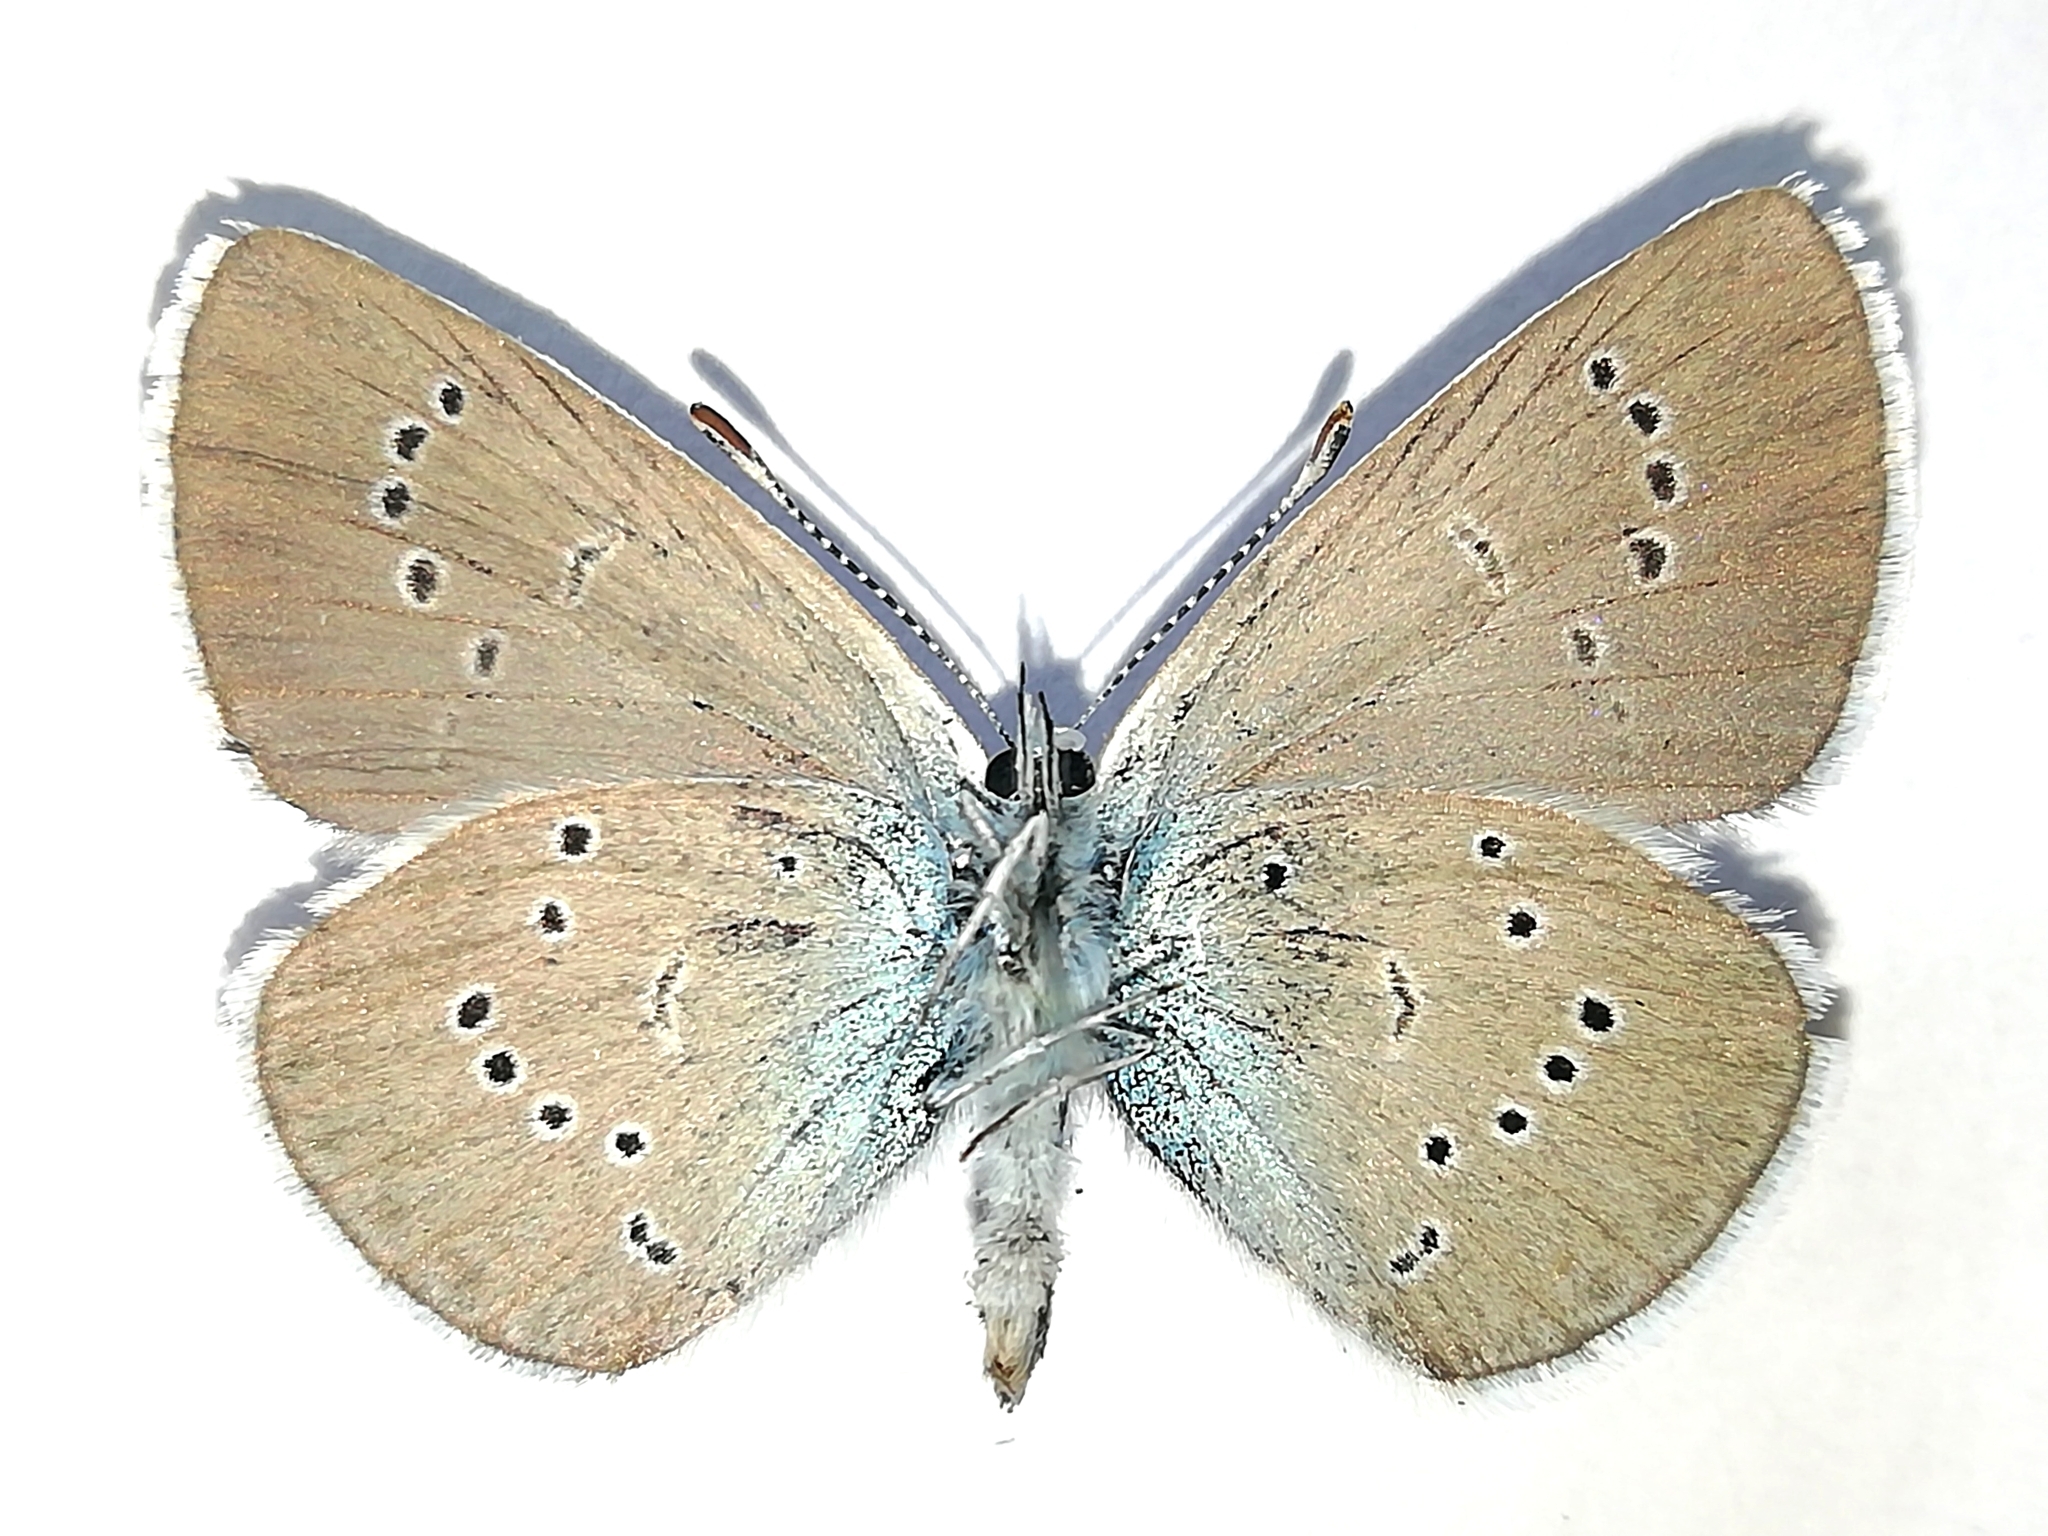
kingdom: Animalia
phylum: Arthropoda
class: Insecta
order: Lepidoptera
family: Lycaenidae
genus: Cyaniris
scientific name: Cyaniris semiargus
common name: Mazarine blue
